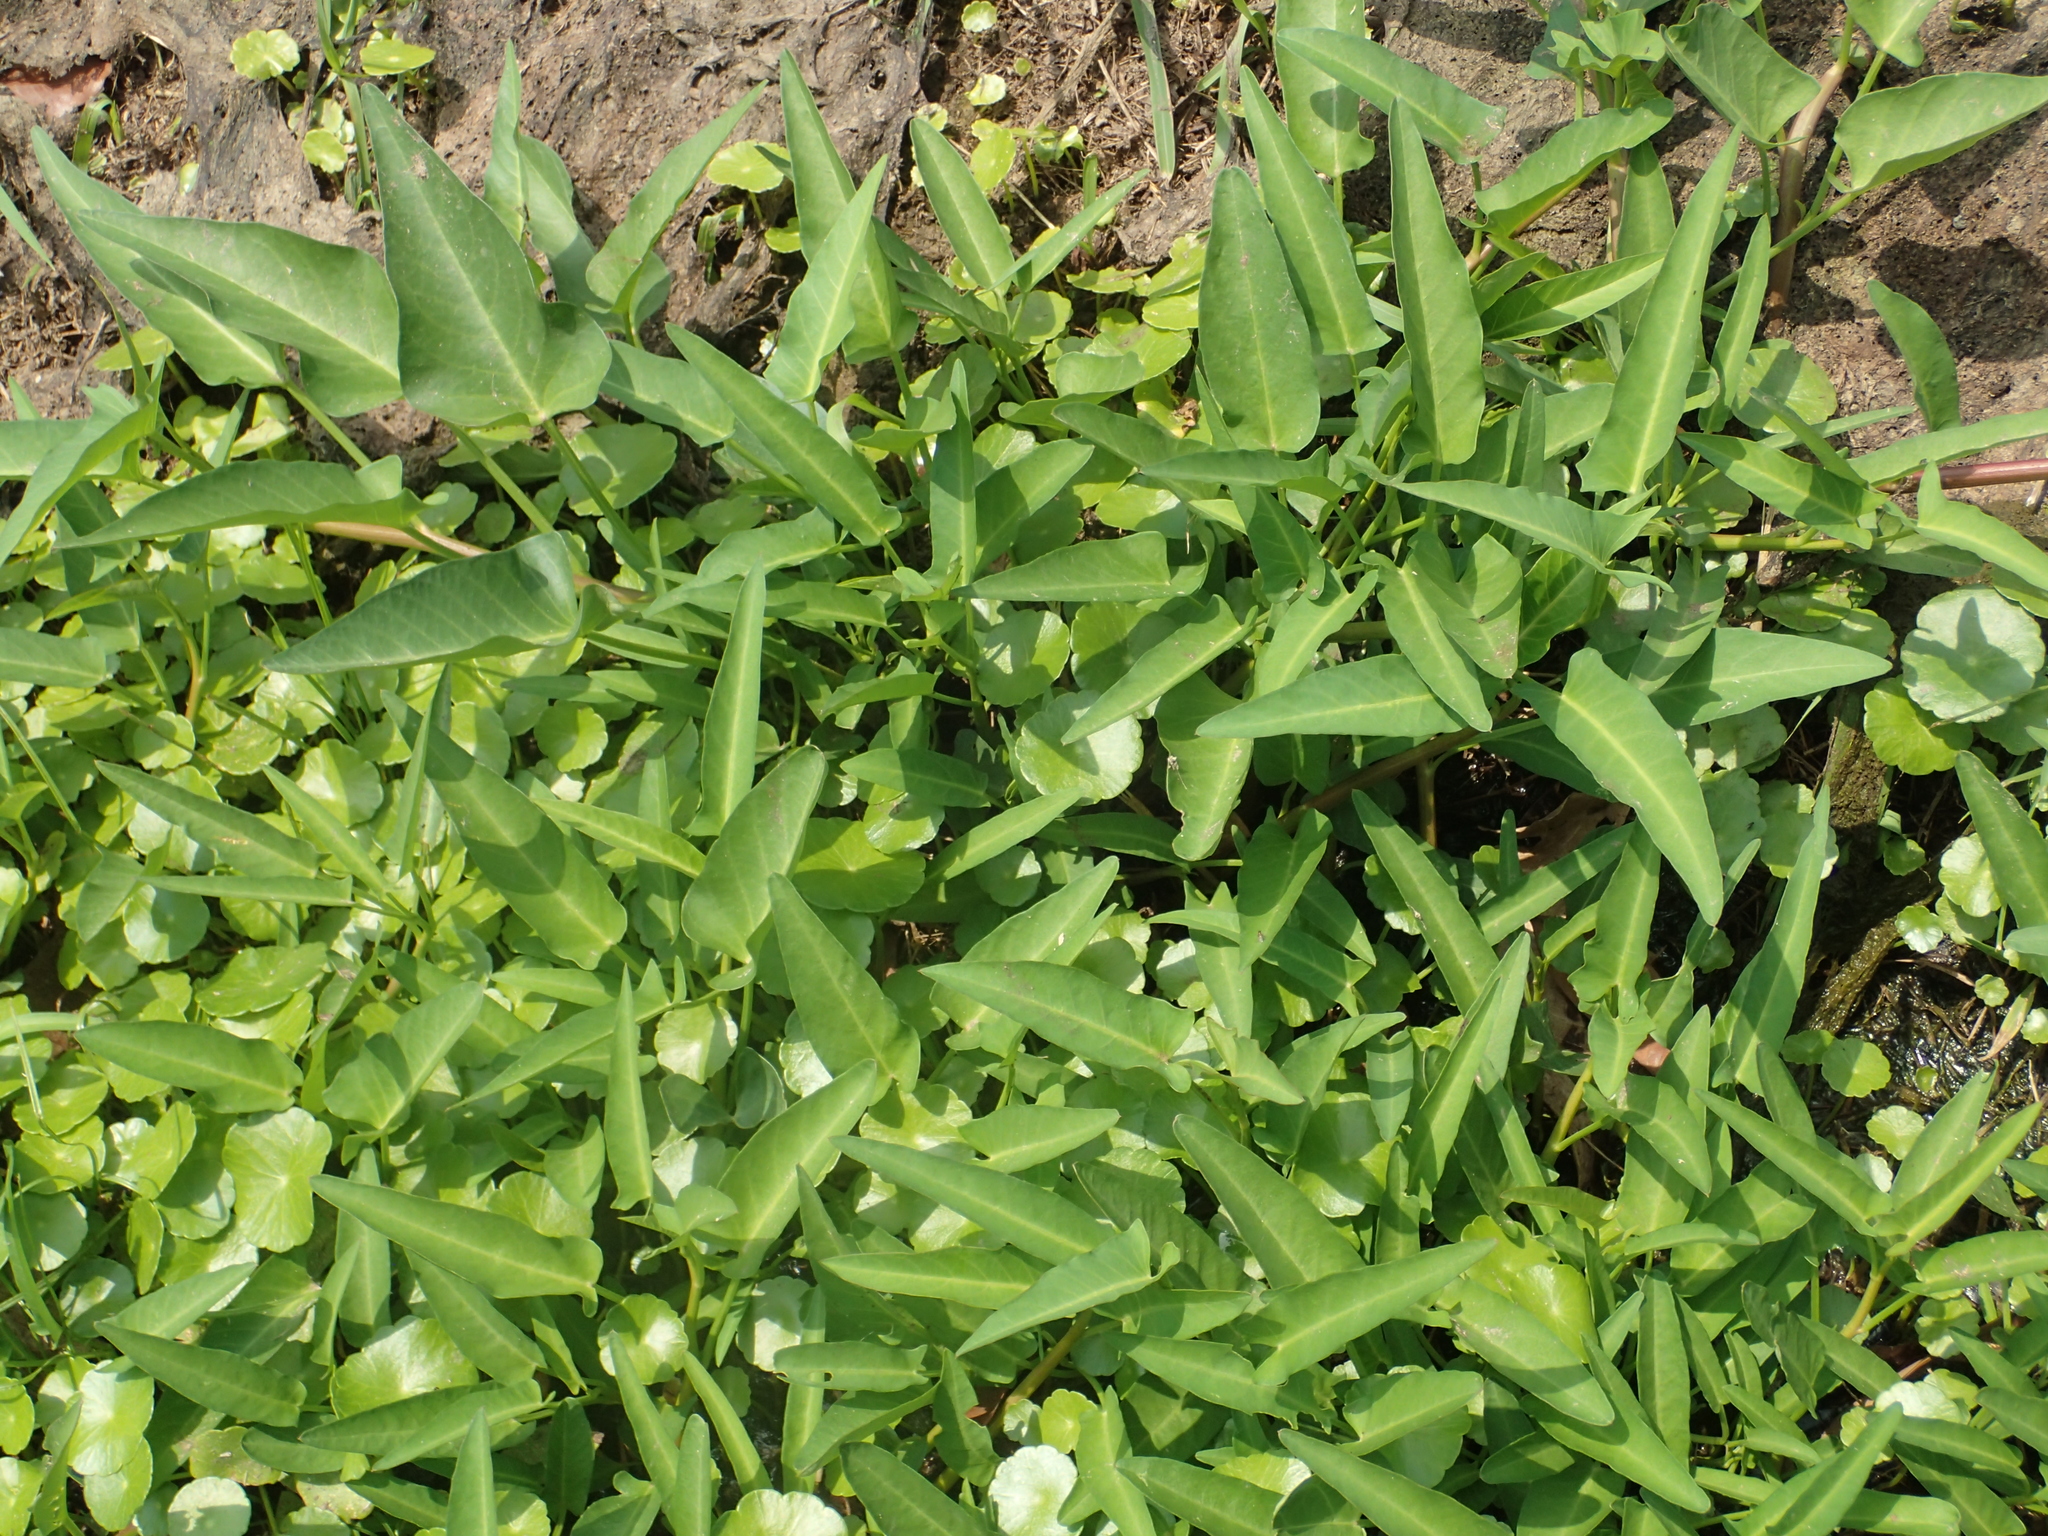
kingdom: Plantae
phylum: Tracheophyta
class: Magnoliopsida
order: Solanales
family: Convolvulaceae
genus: Ipomoea
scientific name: Ipomoea aquatica
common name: Swamp morning-glory
